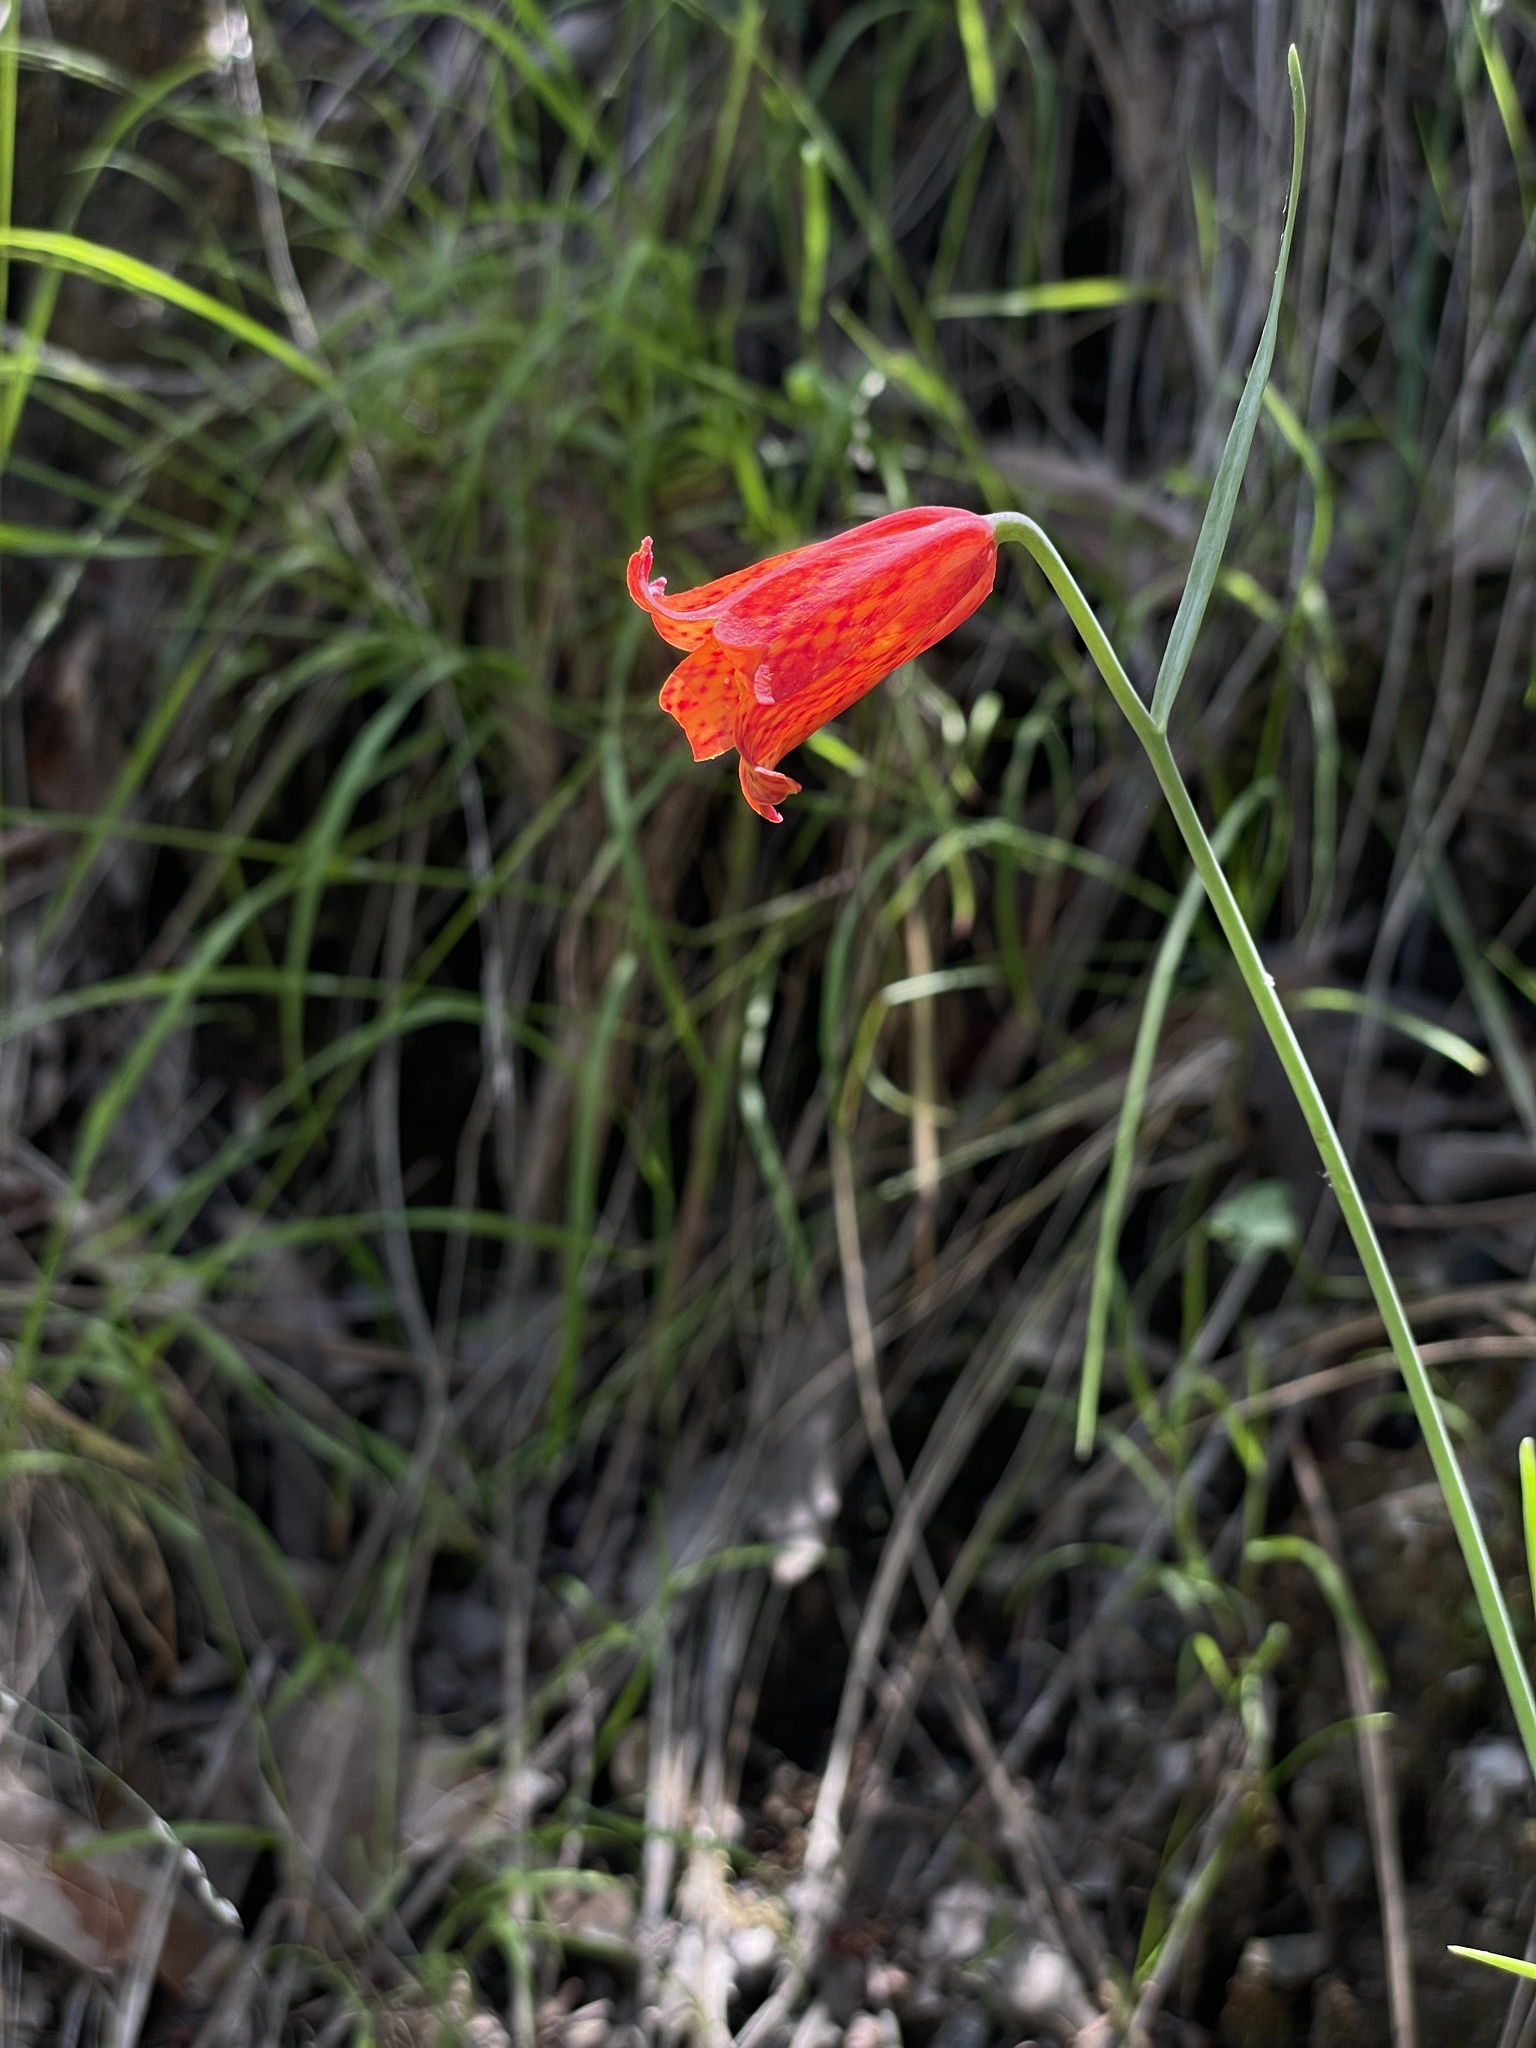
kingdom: Plantae
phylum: Tracheophyta
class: Liliopsida
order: Liliales
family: Liliaceae
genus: Fritillaria
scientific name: Fritillaria recurva
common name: Scarlet fritillary
